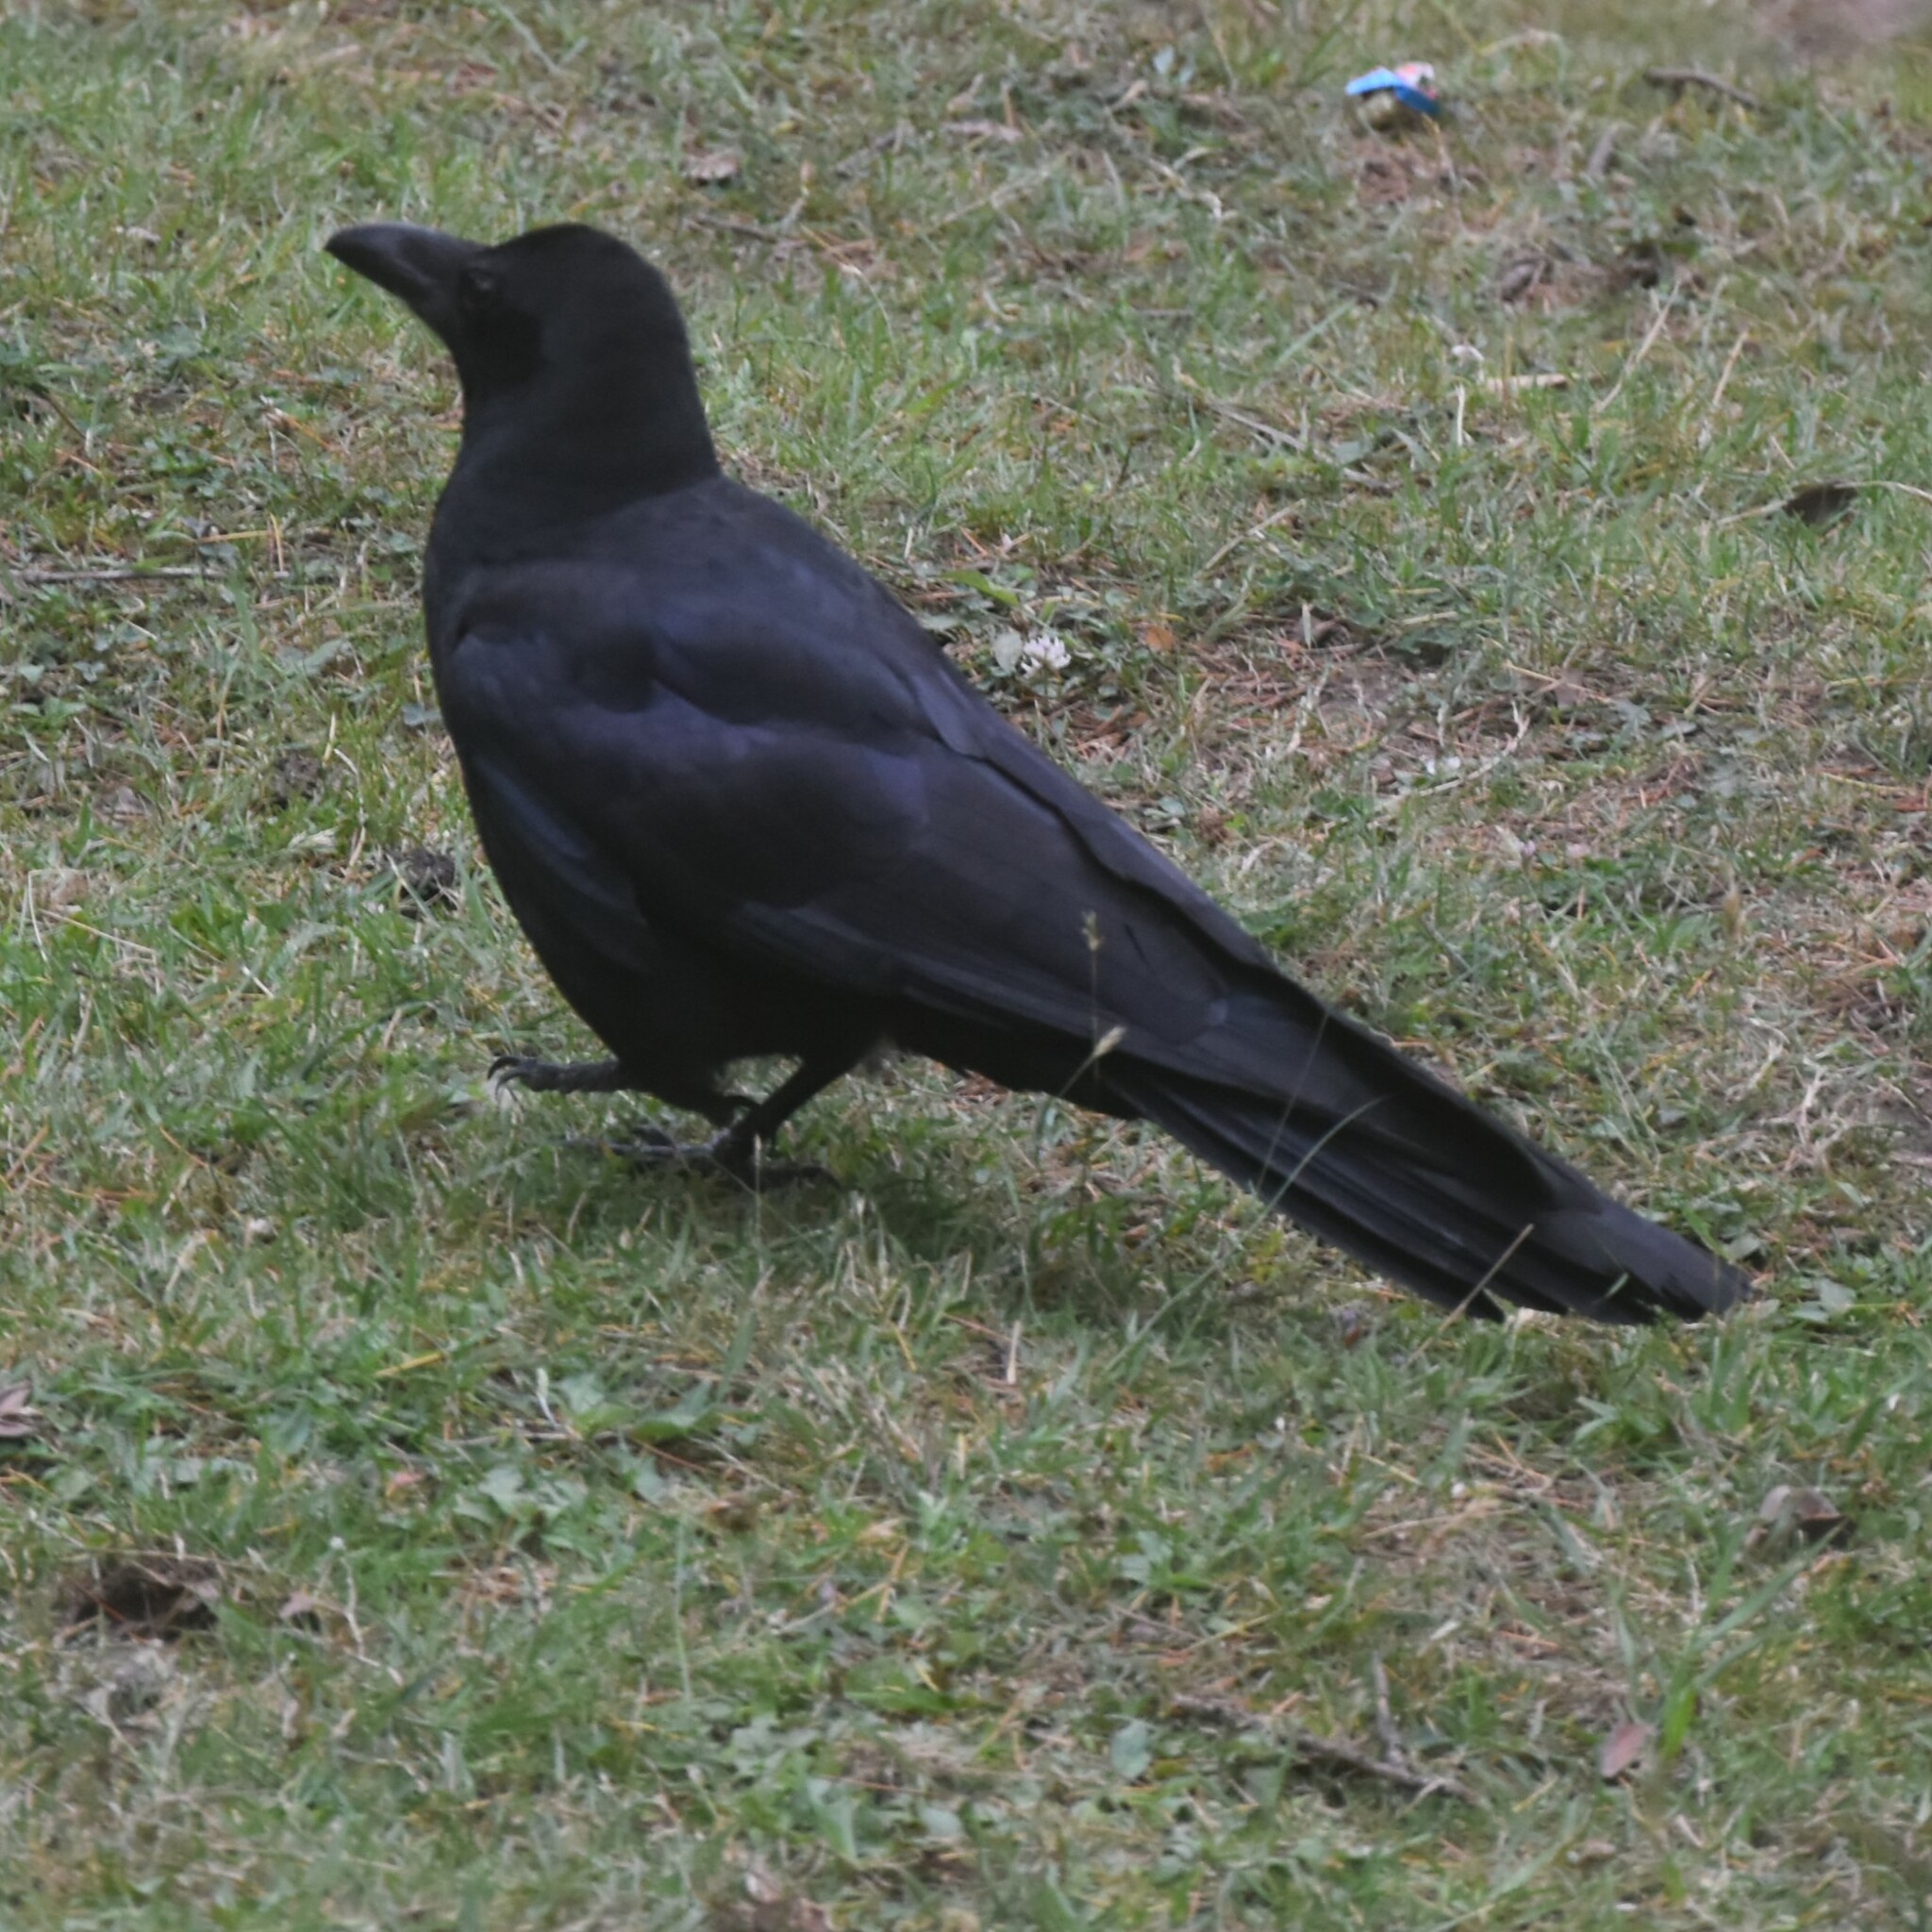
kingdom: Animalia
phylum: Chordata
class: Aves
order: Passeriformes
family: Corvidae
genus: Corvus
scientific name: Corvus macrorhynchos
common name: Large-billed crow
